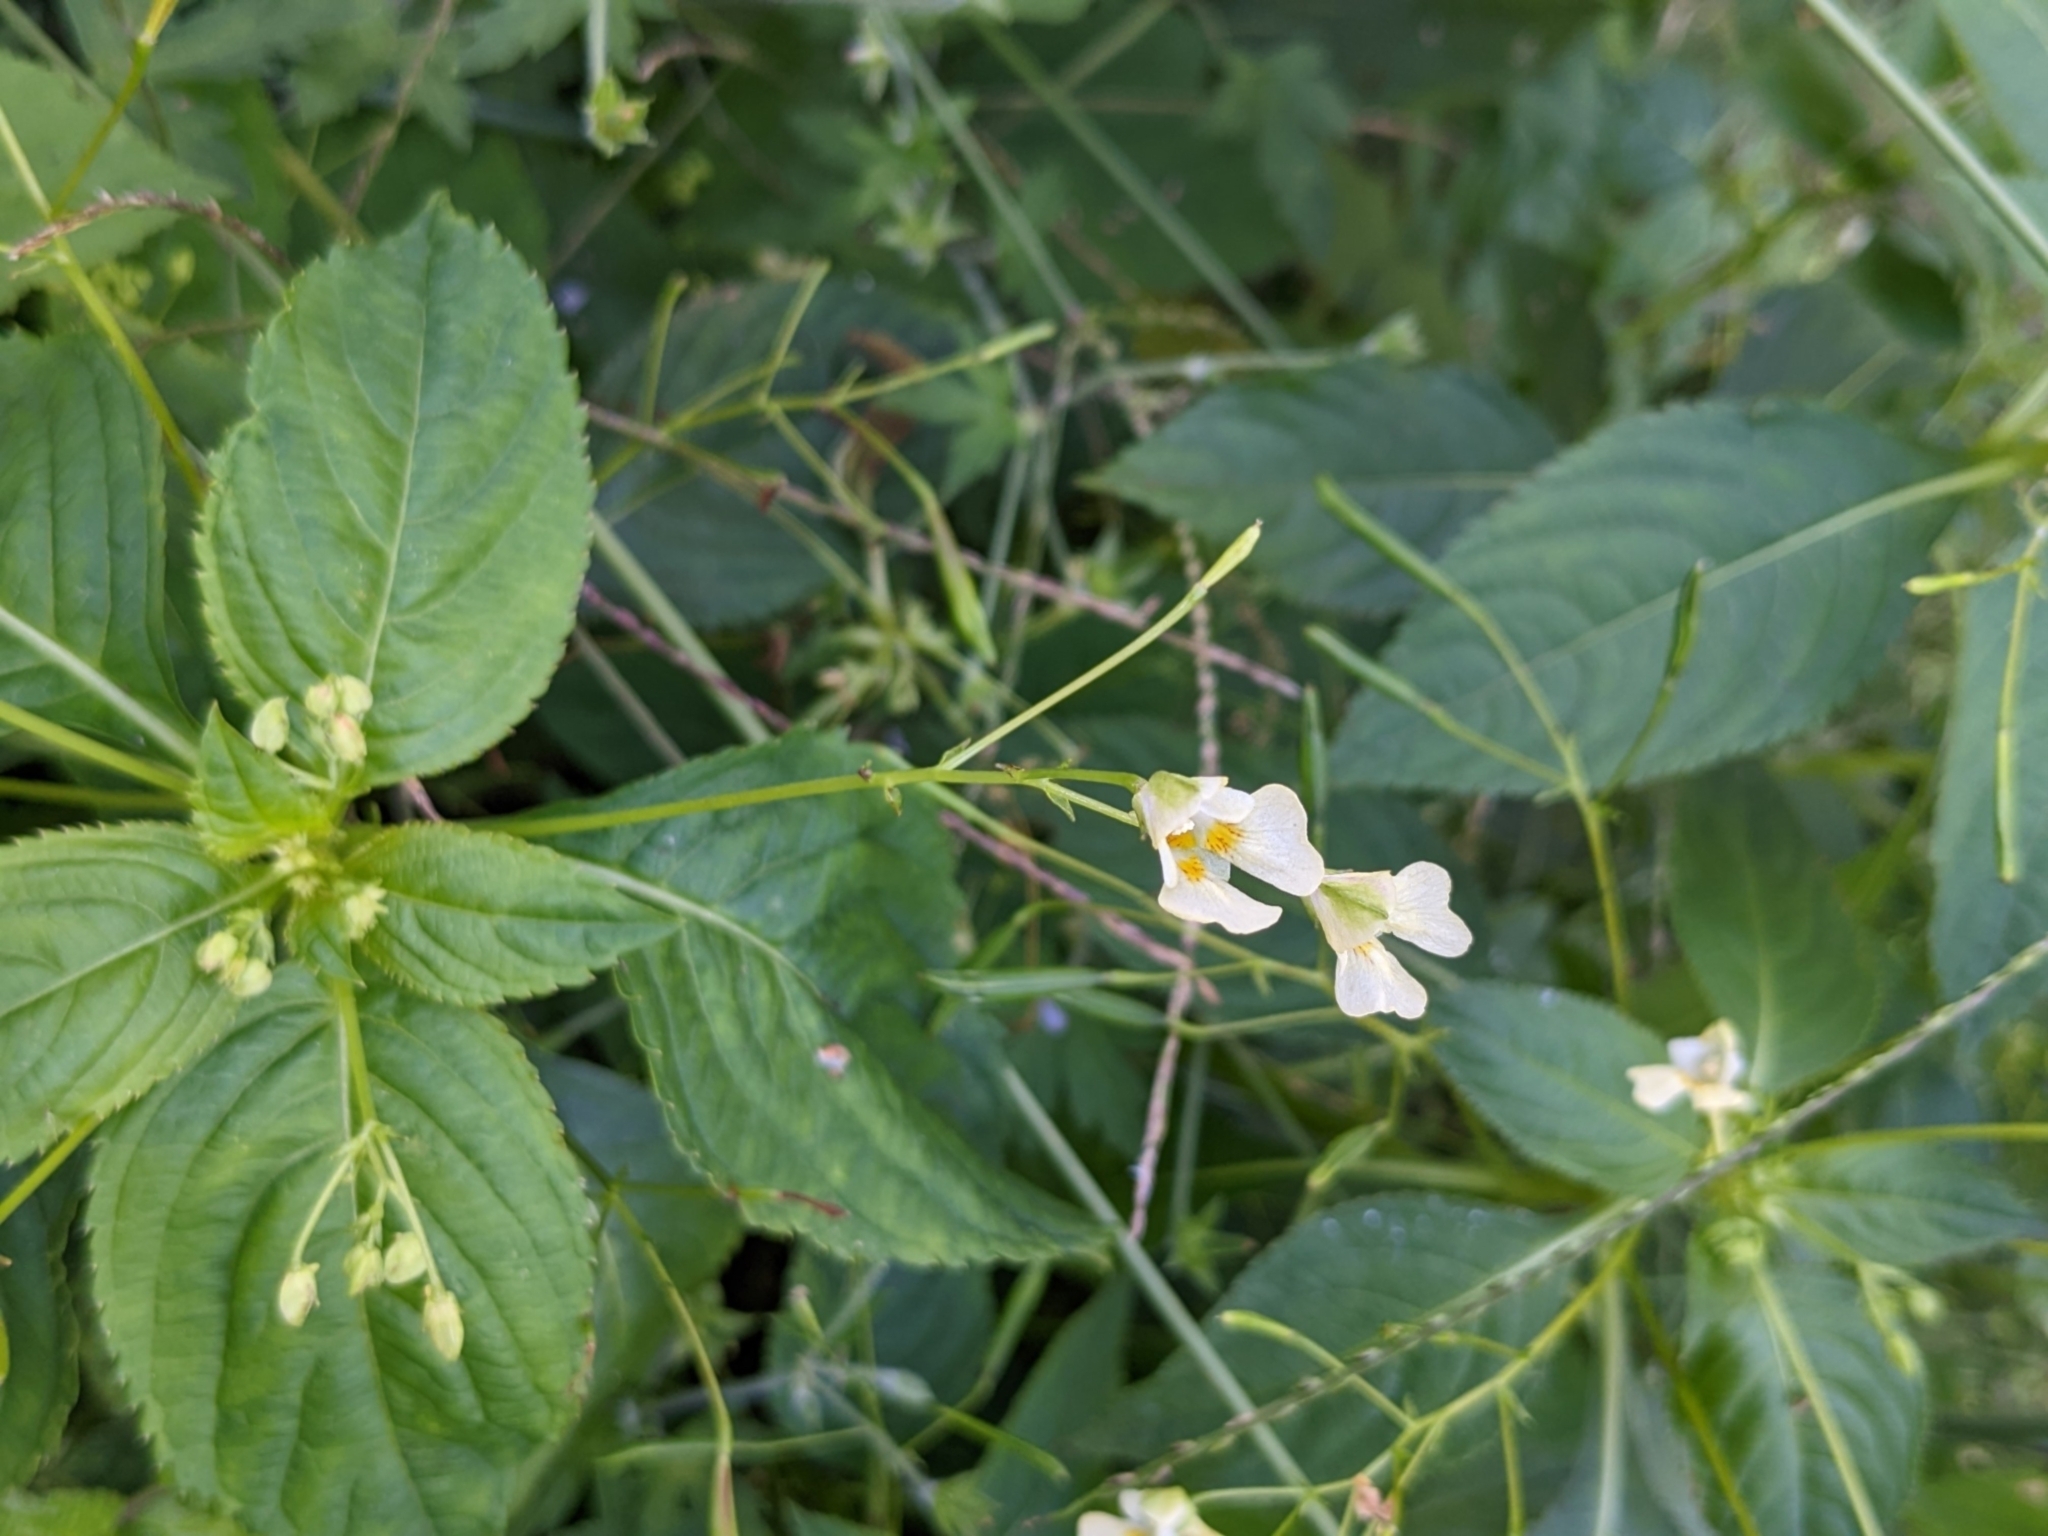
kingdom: Plantae
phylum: Tracheophyta
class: Magnoliopsida
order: Ericales
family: Balsaminaceae
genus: Impatiens
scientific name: Impatiens parviflora
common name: Small balsam
